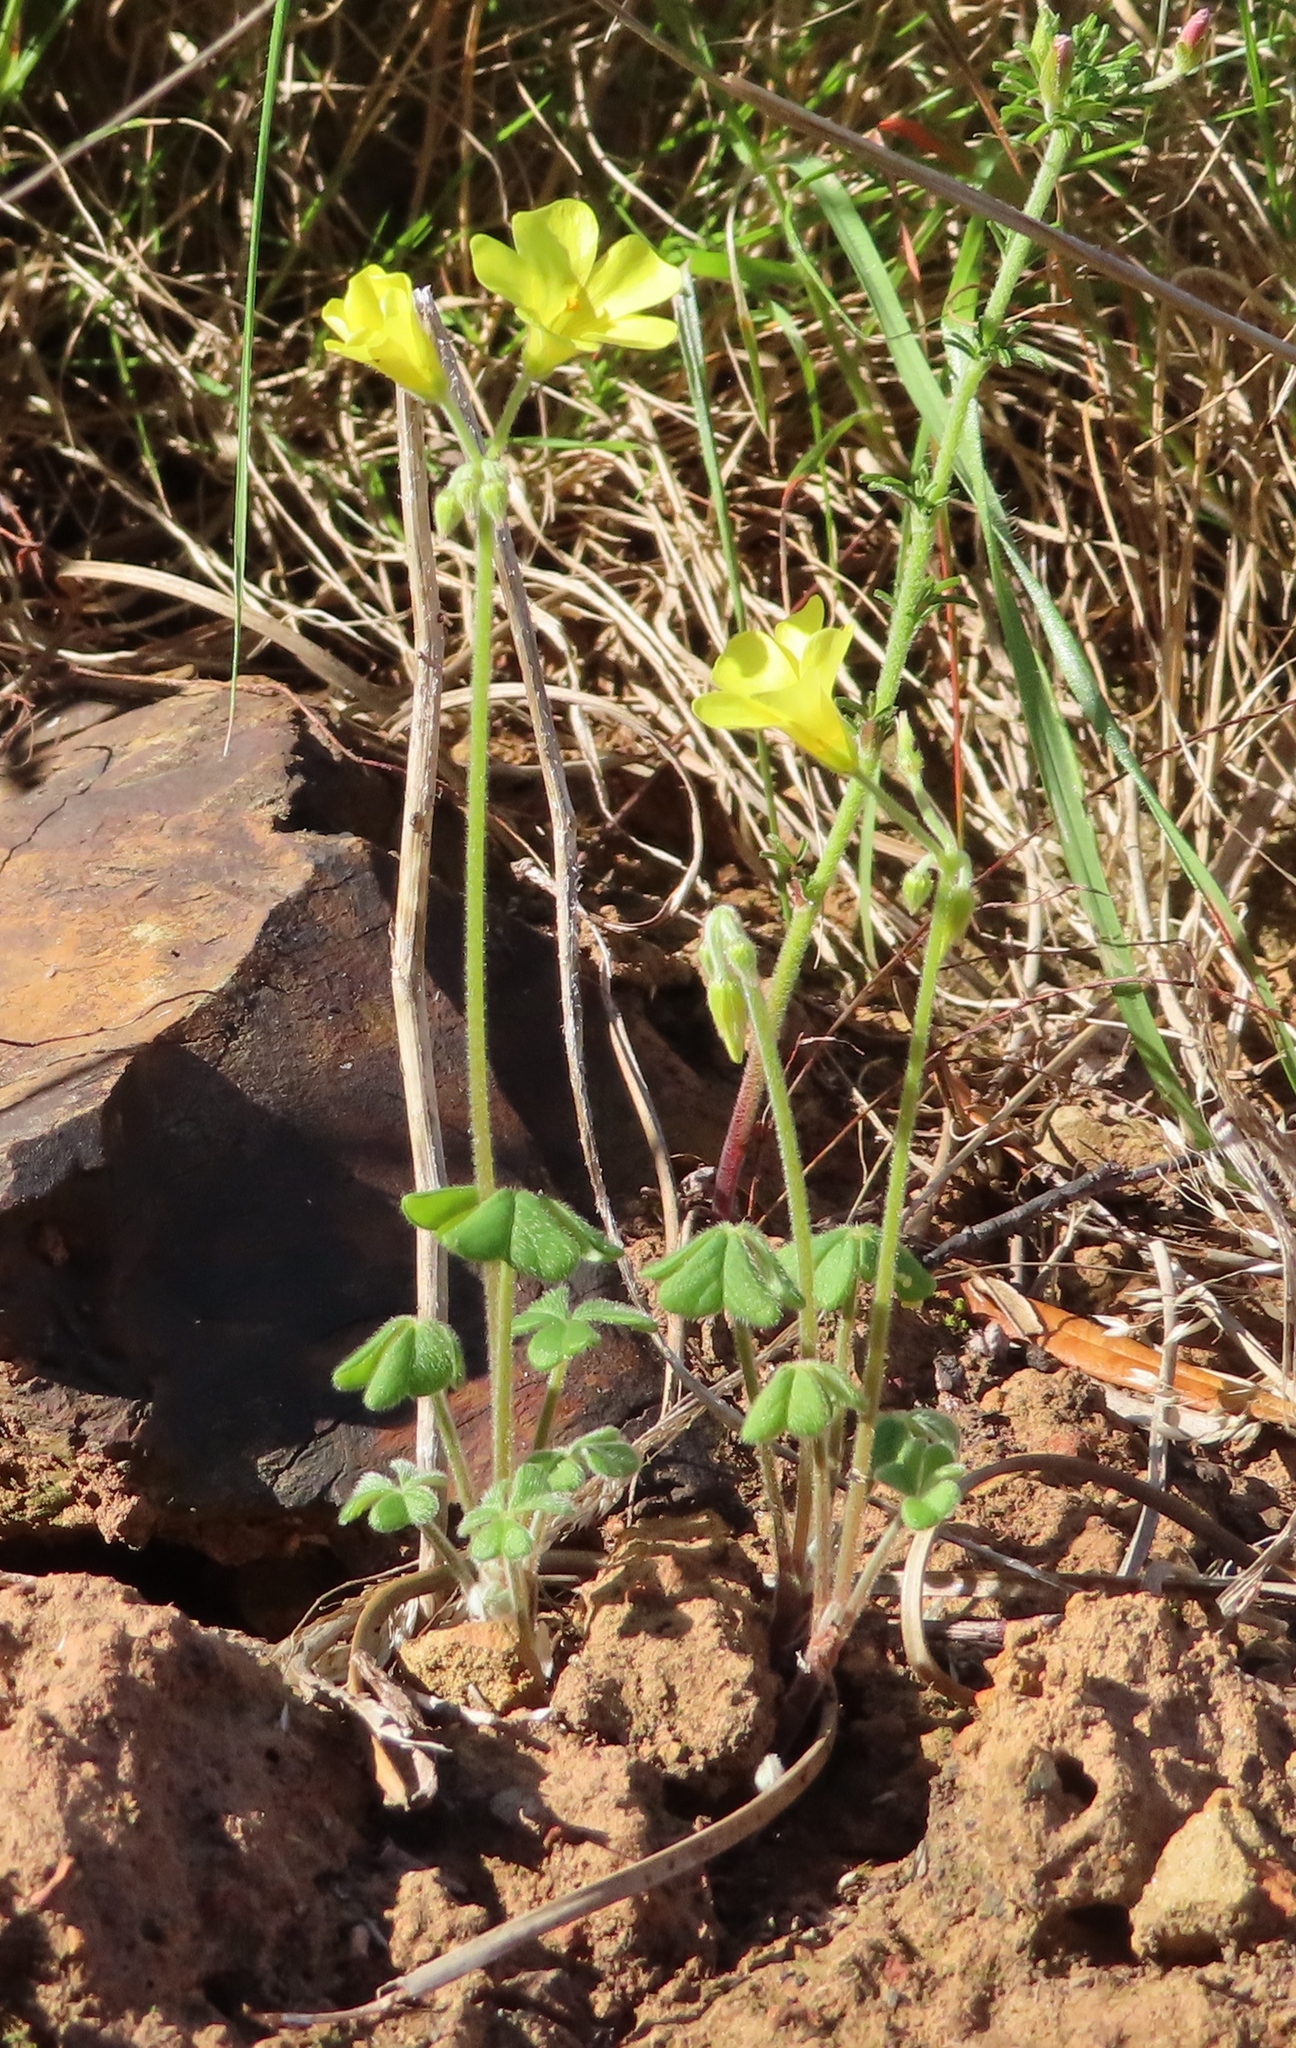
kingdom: Plantae
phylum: Tracheophyta
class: Magnoliopsida
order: Oxalidales
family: Oxalidaceae
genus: Oxalis
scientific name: Oxalis pes-caprae
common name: Bermuda-buttercup
